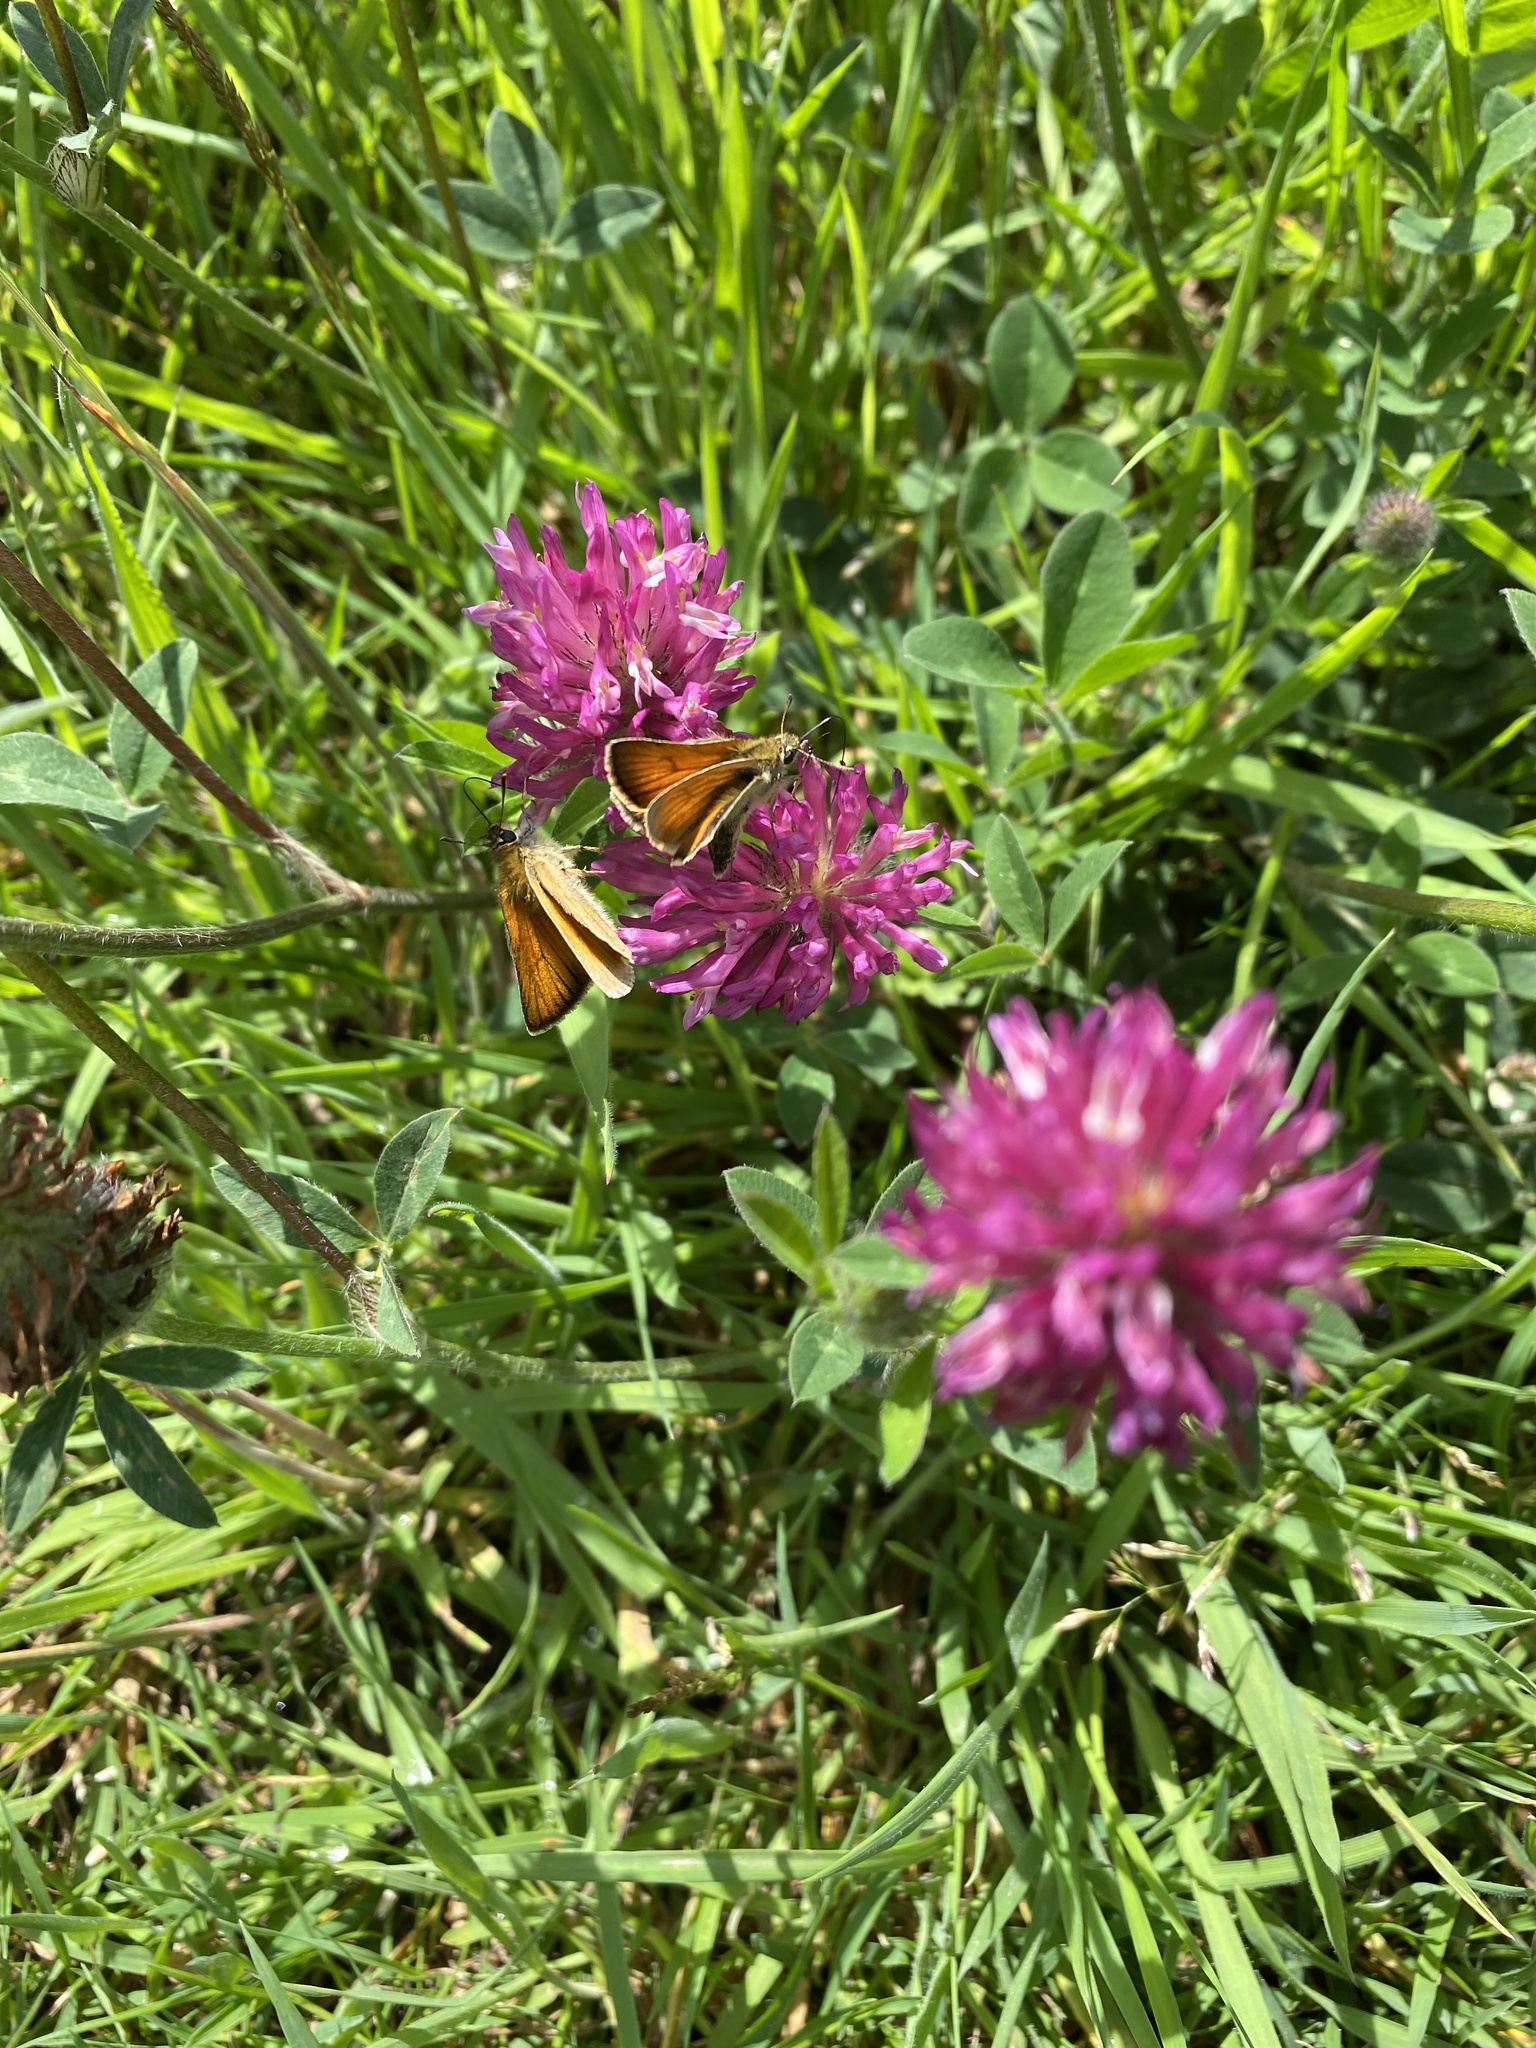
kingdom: Animalia
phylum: Arthropoda
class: Insecta
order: Lepidoptera
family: Hesperiidae
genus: Thymelicus
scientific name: Thymelicus sylvestris
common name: Small skipper
